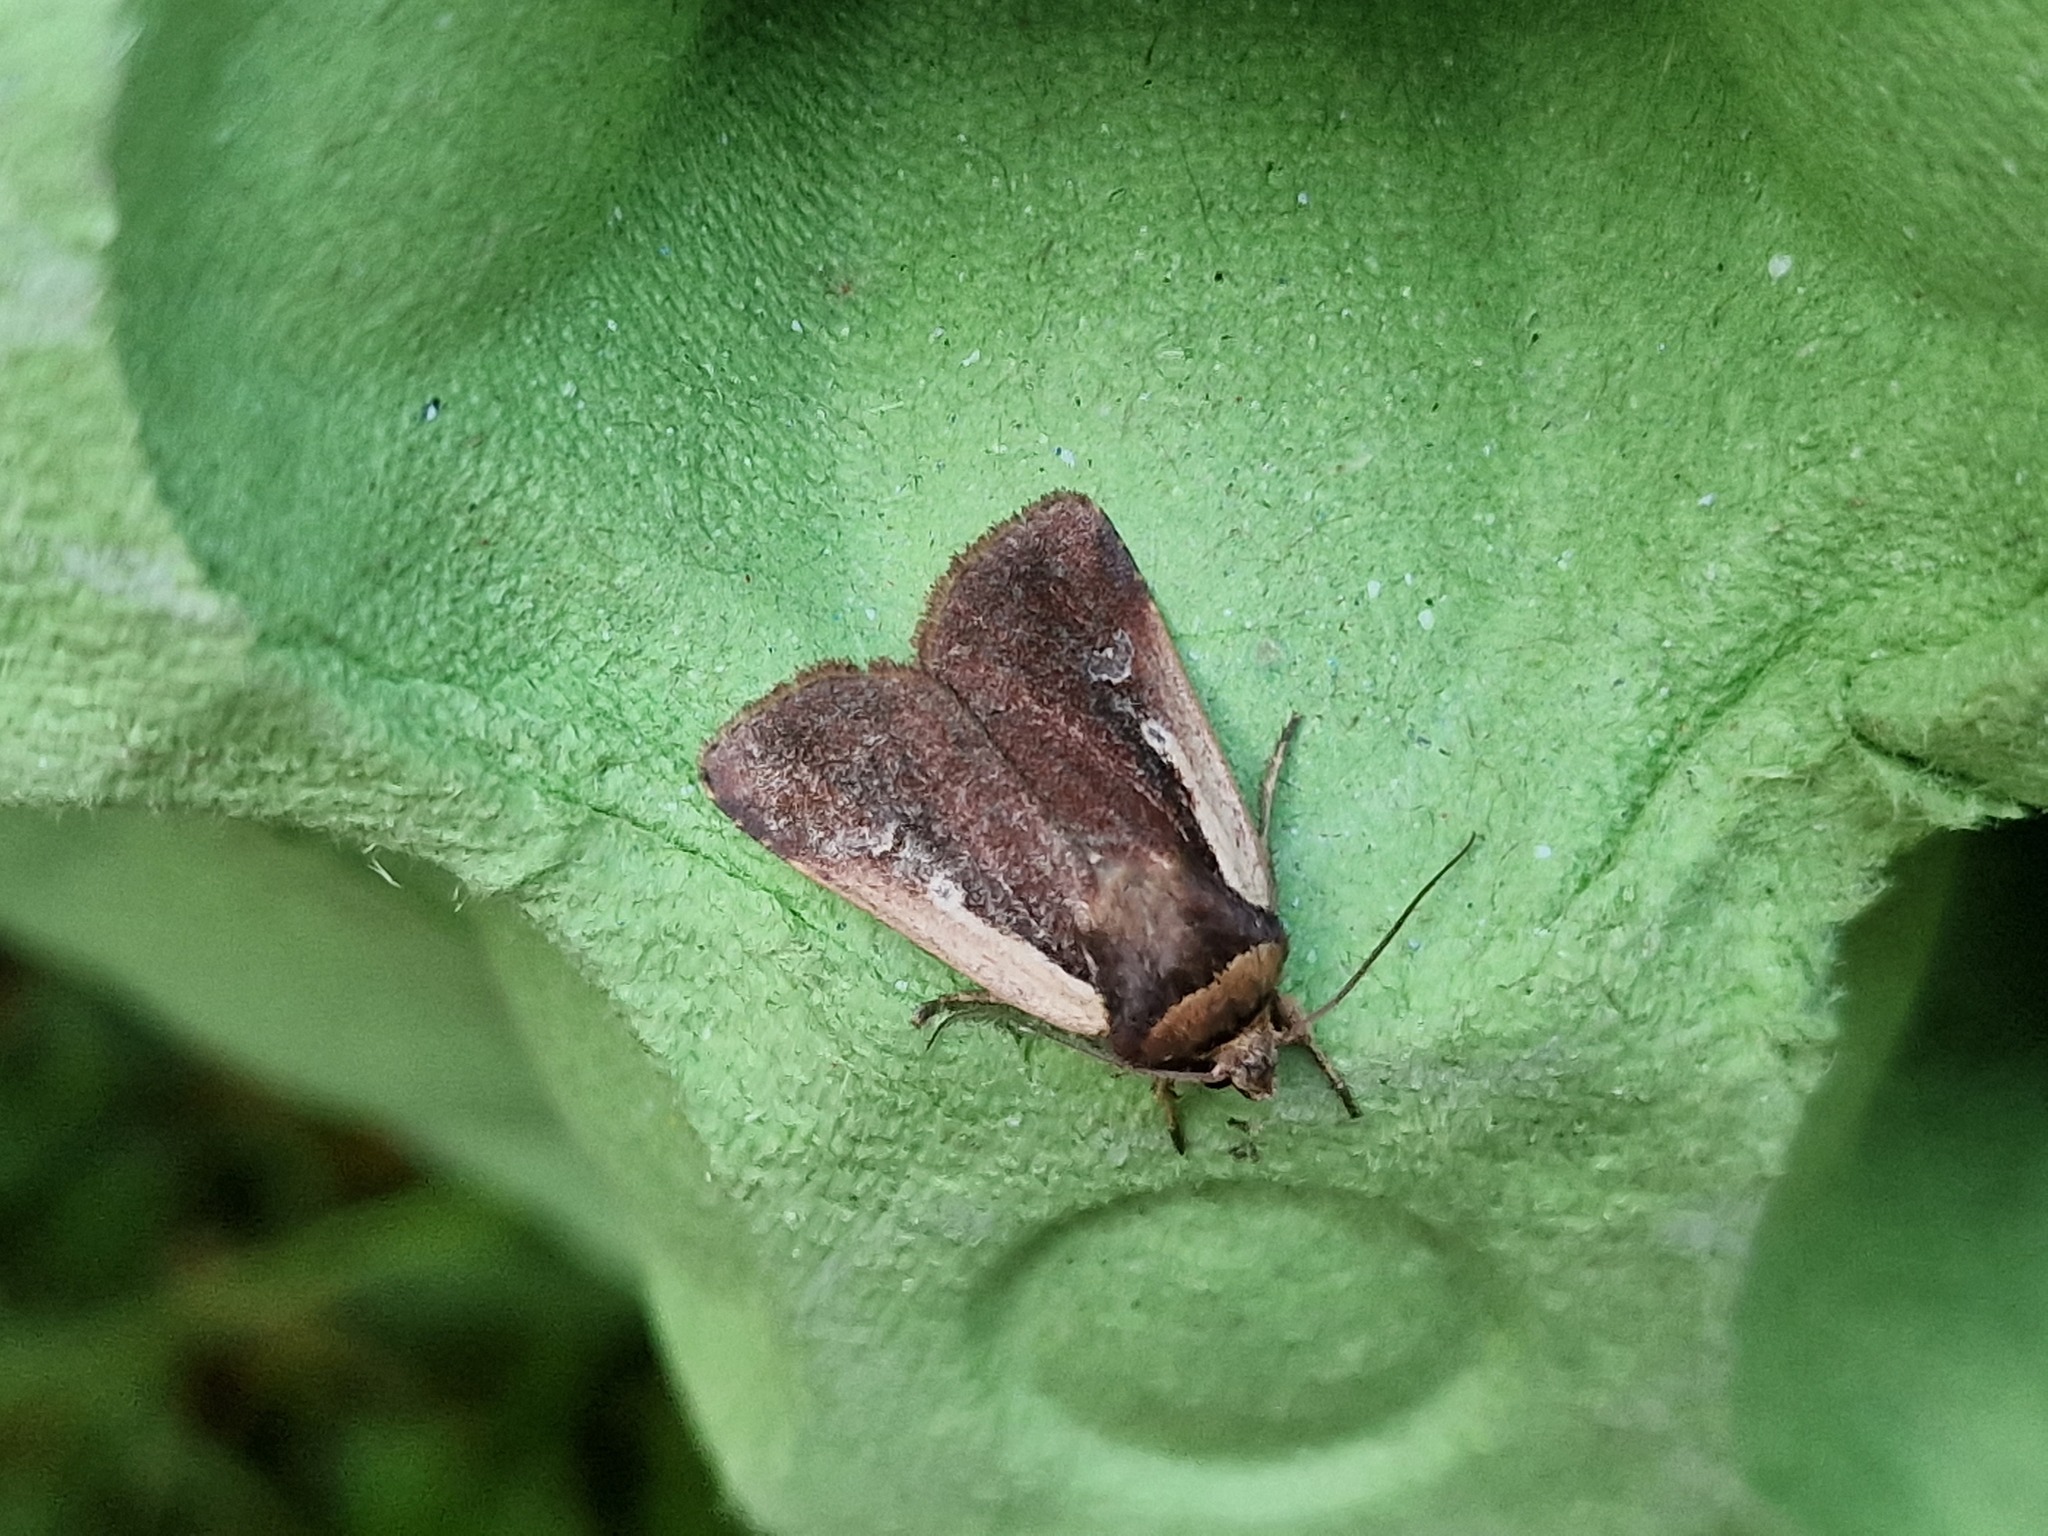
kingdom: Animalia
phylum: Arthropoda
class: Insecta
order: Lepidoptera
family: Noctuidae
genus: Ochropleura
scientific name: Ochropleura plecta
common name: Flame shoulder
